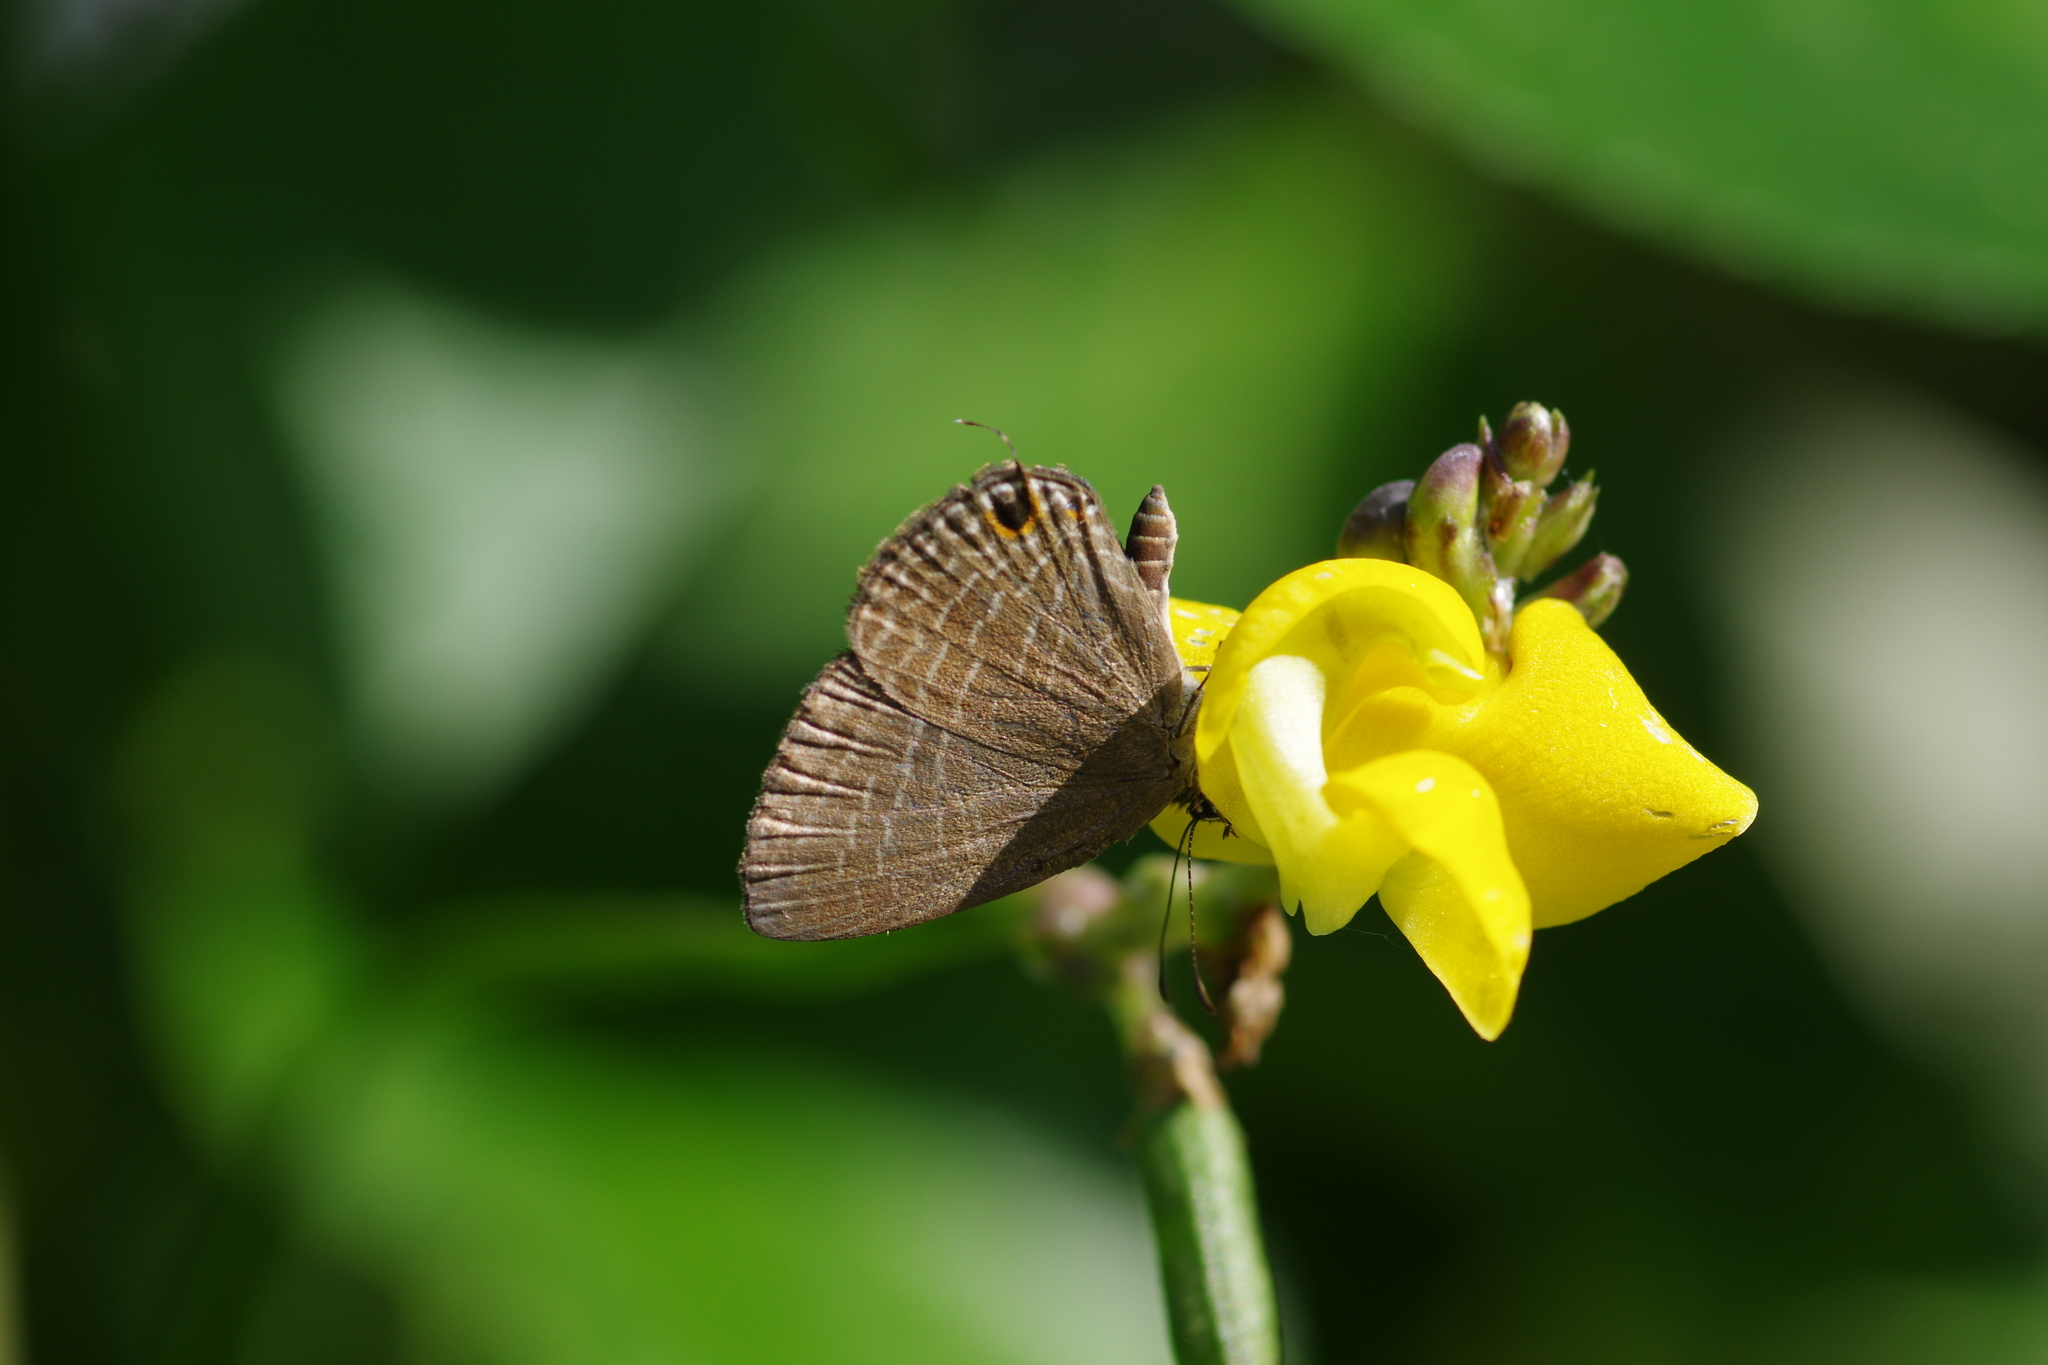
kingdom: Animalia
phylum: Arthropoda
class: Insecta
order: Lepidoptera
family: Lycaenidae
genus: Nacaduba
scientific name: Nacaduba kurava
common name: Transparent 6-line blue
